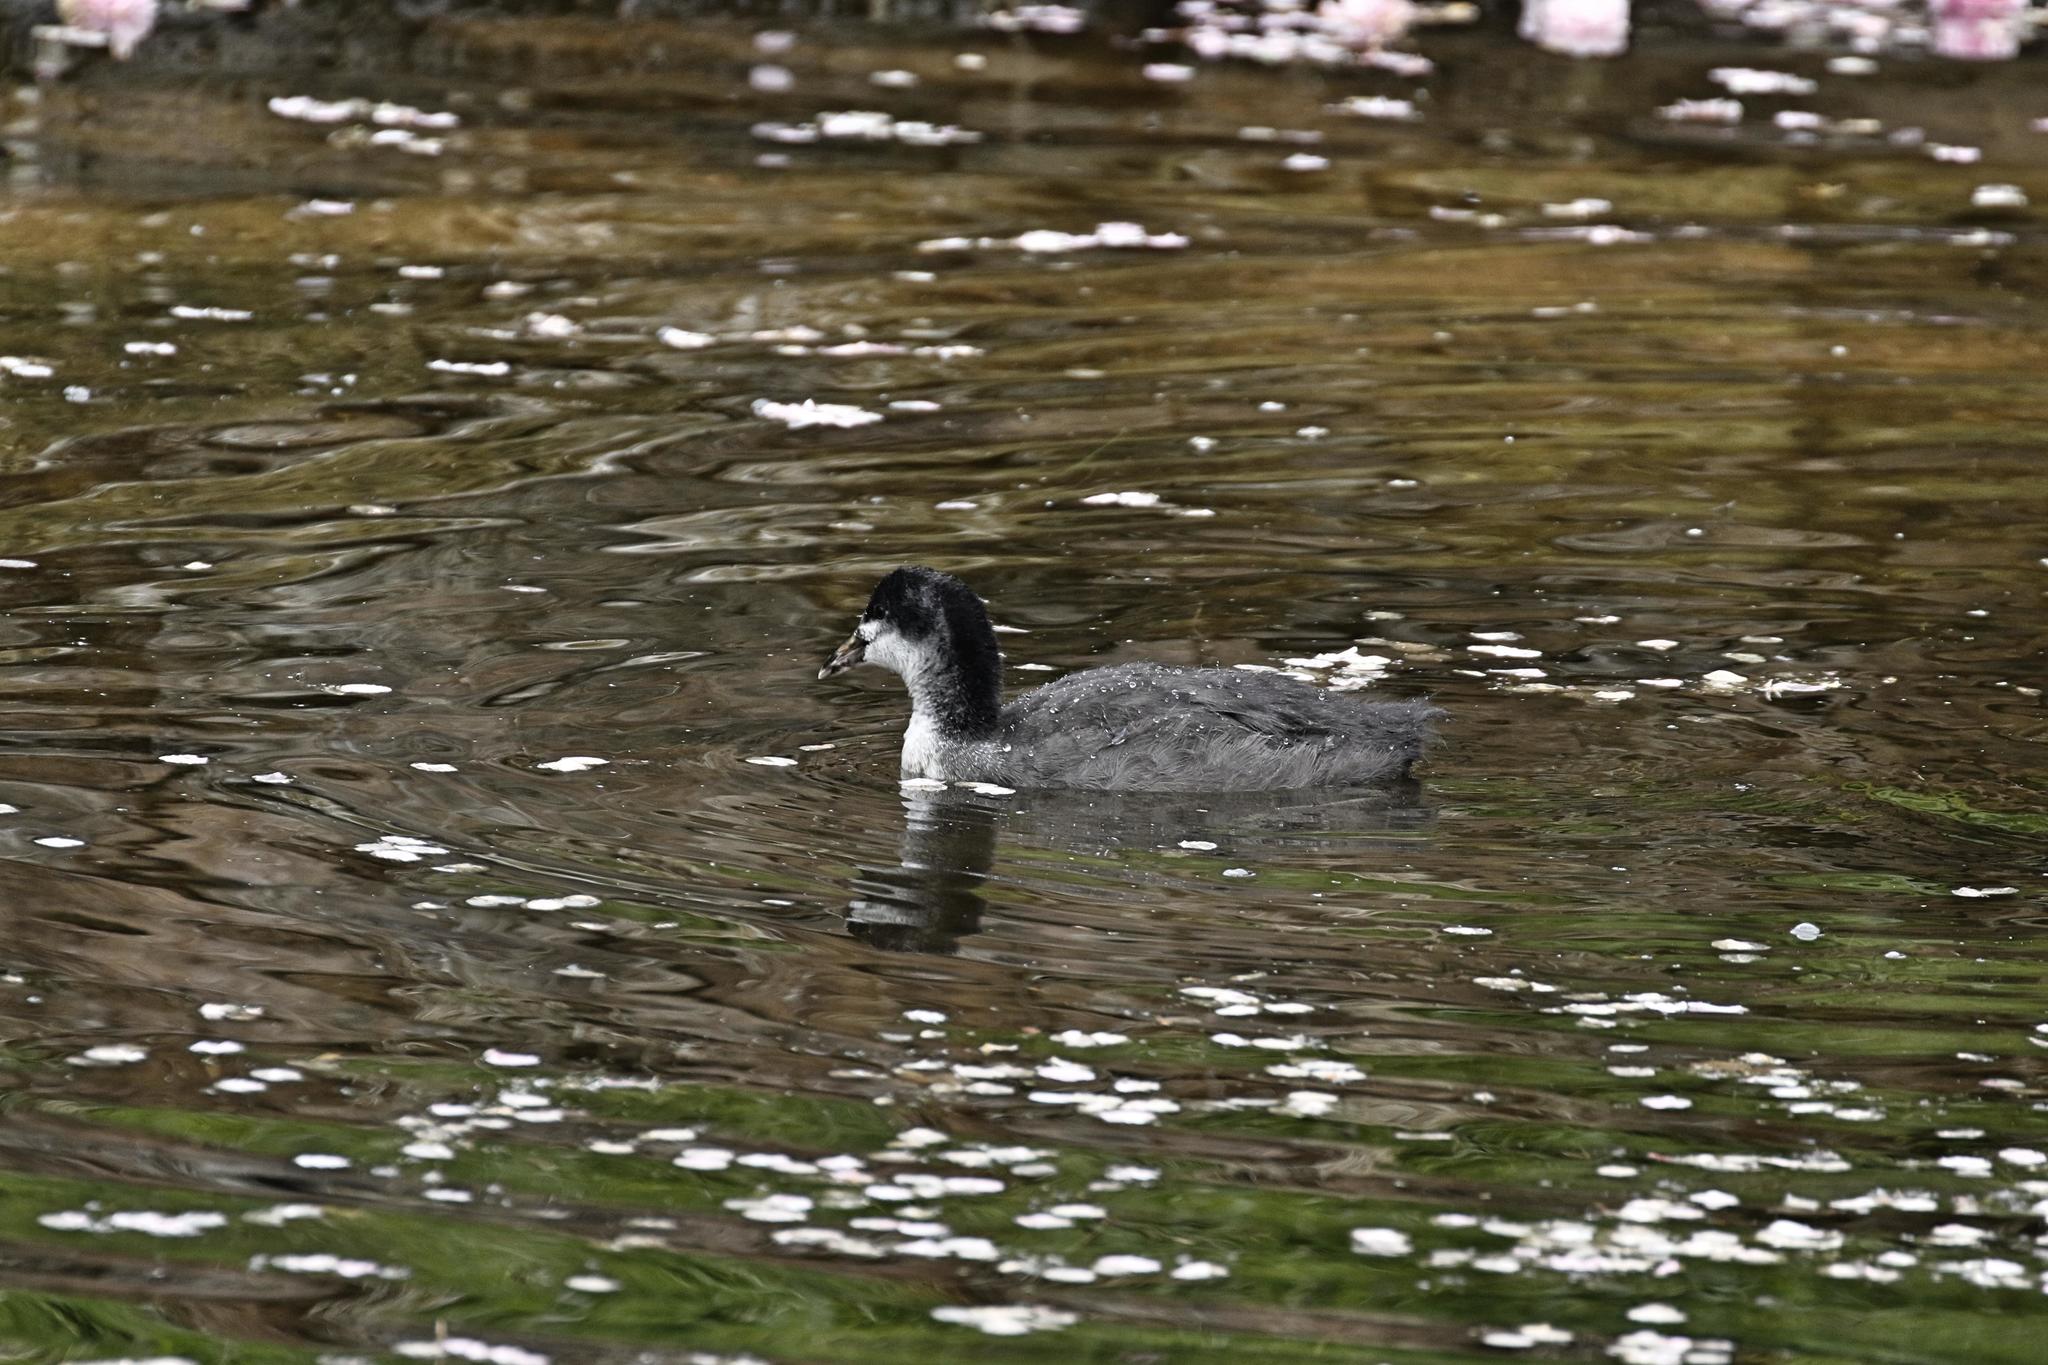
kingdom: Animalia
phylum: Chordata
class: Aves
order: Gruiformes
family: Rallidae
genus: Fulica
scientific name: Fulica atra
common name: Eurasian coot
